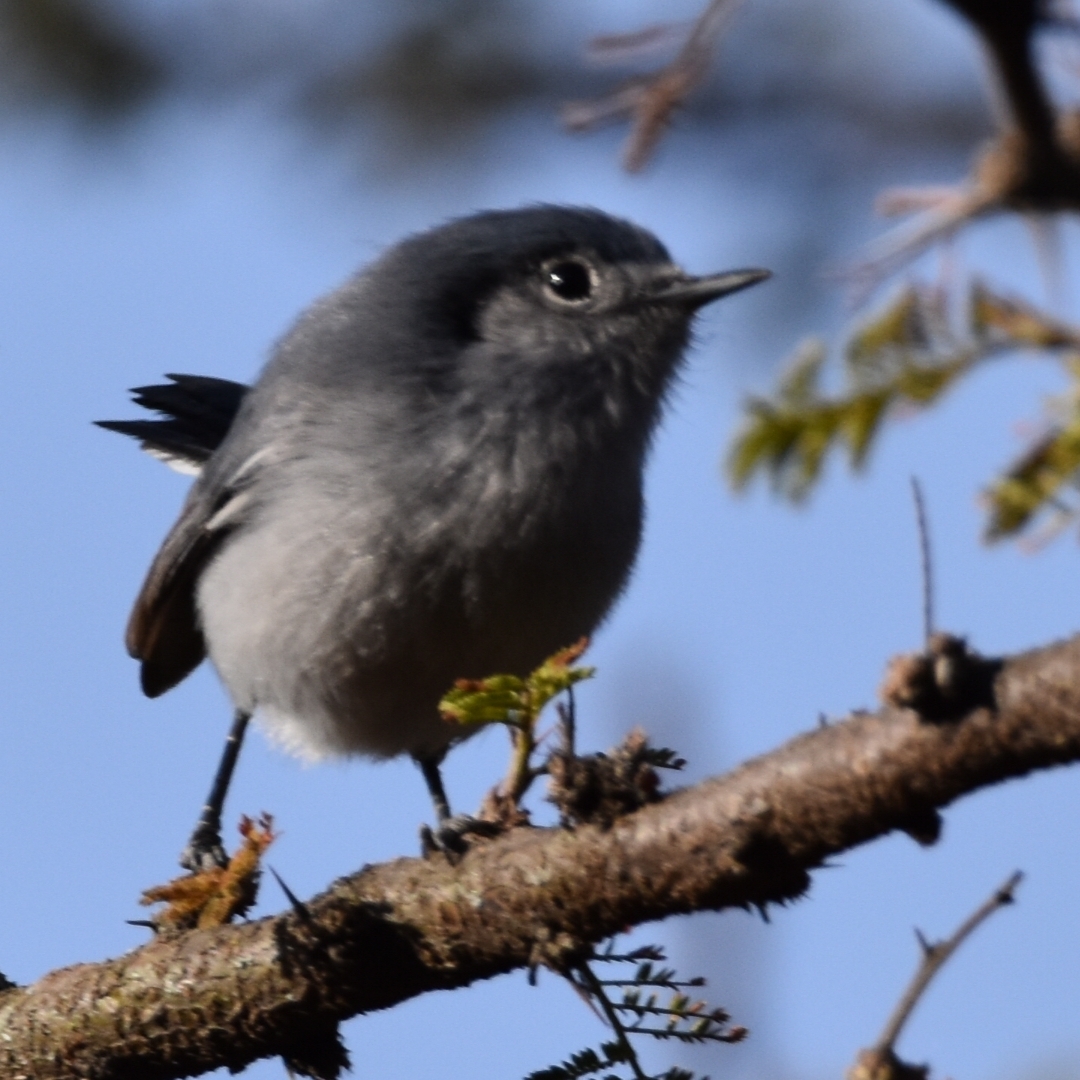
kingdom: Animalia
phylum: Chordata
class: Aves
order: Passeriformes
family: Polioptilidae
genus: Polioptila
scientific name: Polioptila dumicola
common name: Masked gnatcatcher
